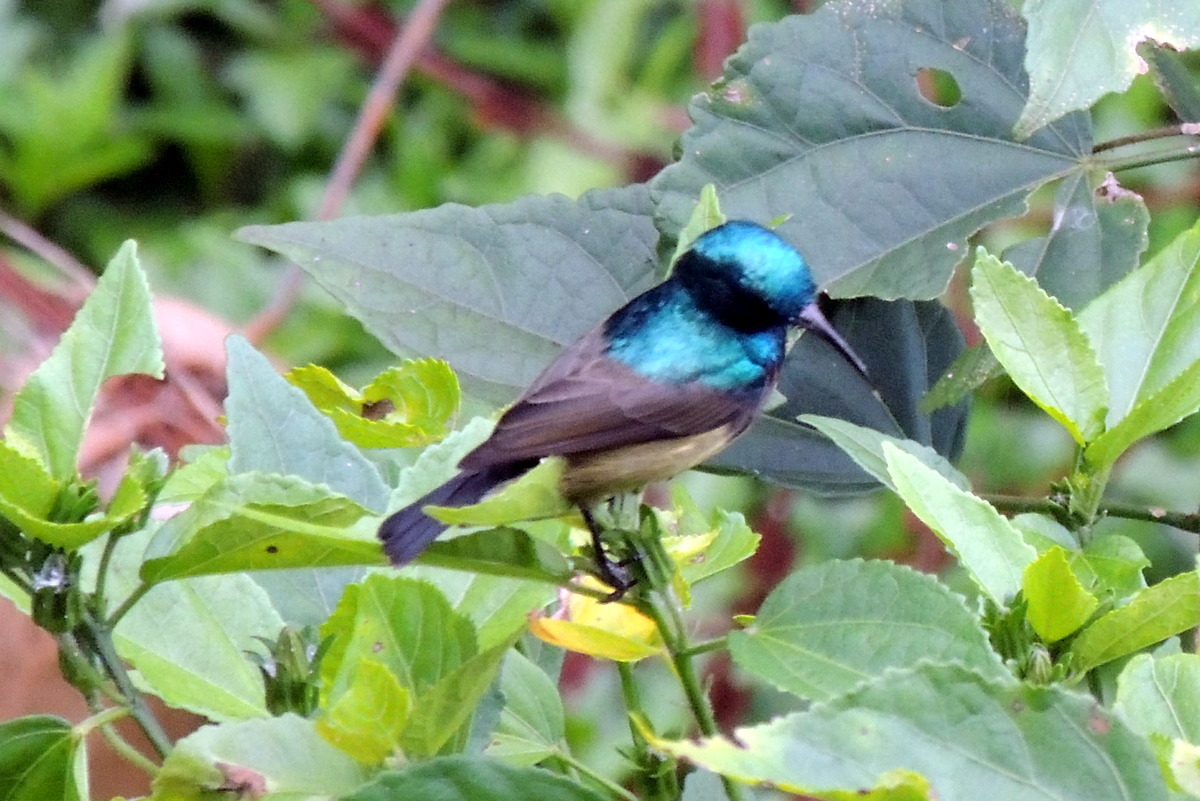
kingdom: Animalia
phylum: Chordata
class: Aves
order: Passeriformes
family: Nectariniidae
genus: Cinnyris
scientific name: Cinnyris sovimanga
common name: Souimanga sunbird
